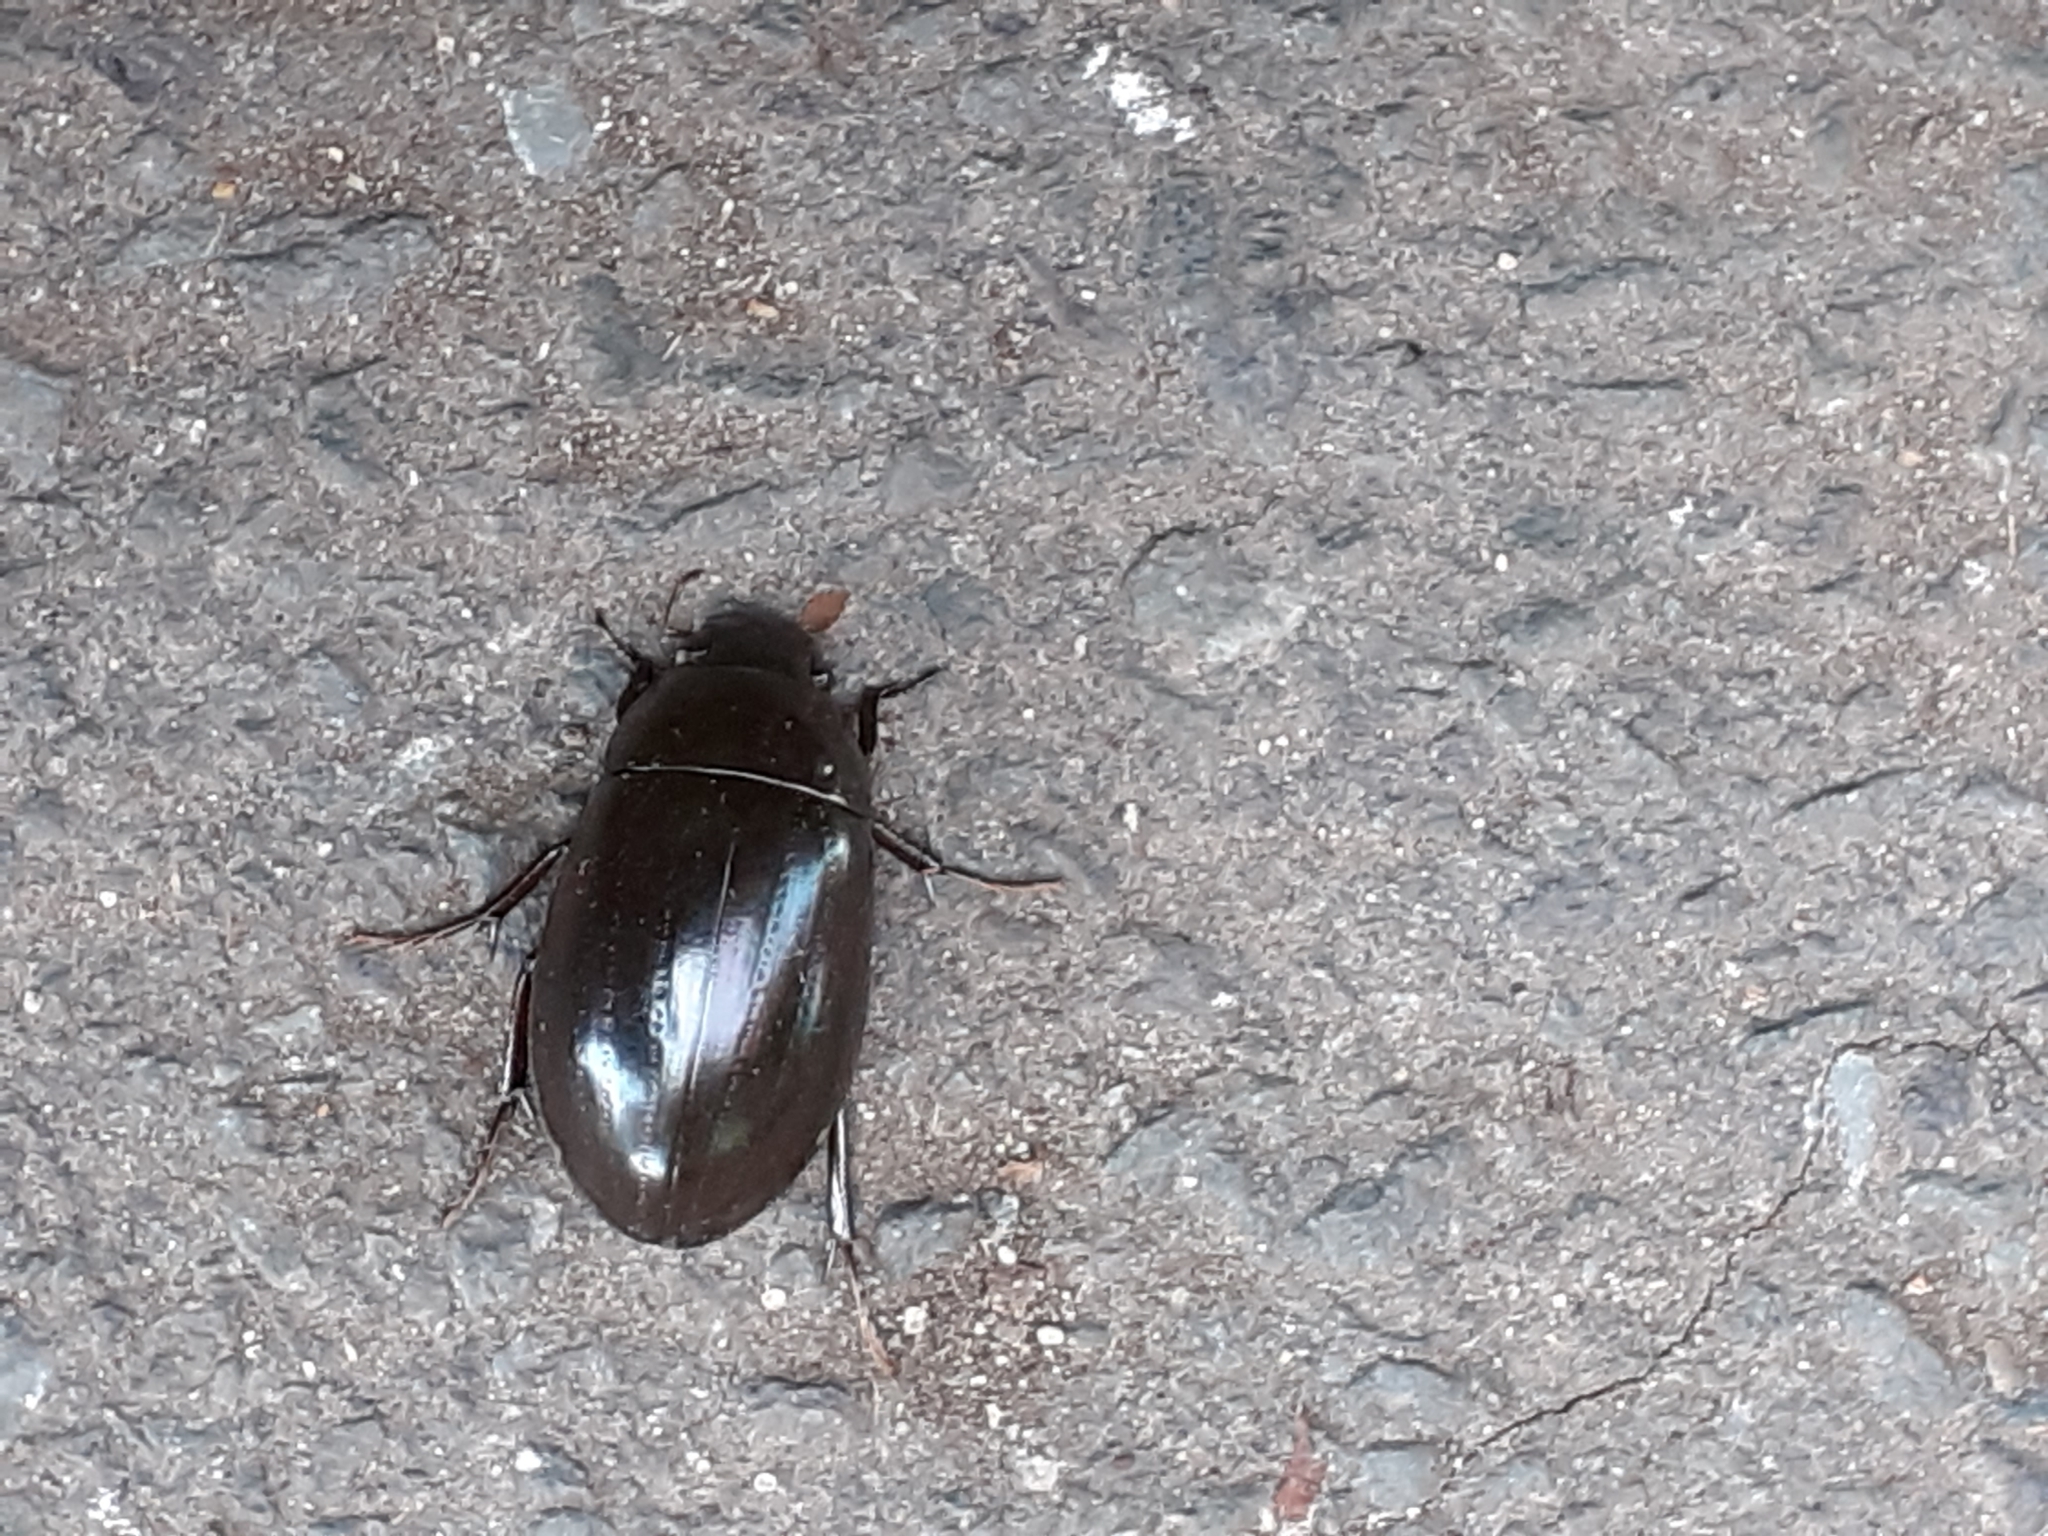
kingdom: Animalia
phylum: Arthropoda
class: Insecta
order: Coleoptera
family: Hydrophilidae
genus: Hydrochara
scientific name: Hydrochara caraboides
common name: Lesser silver water beetle
